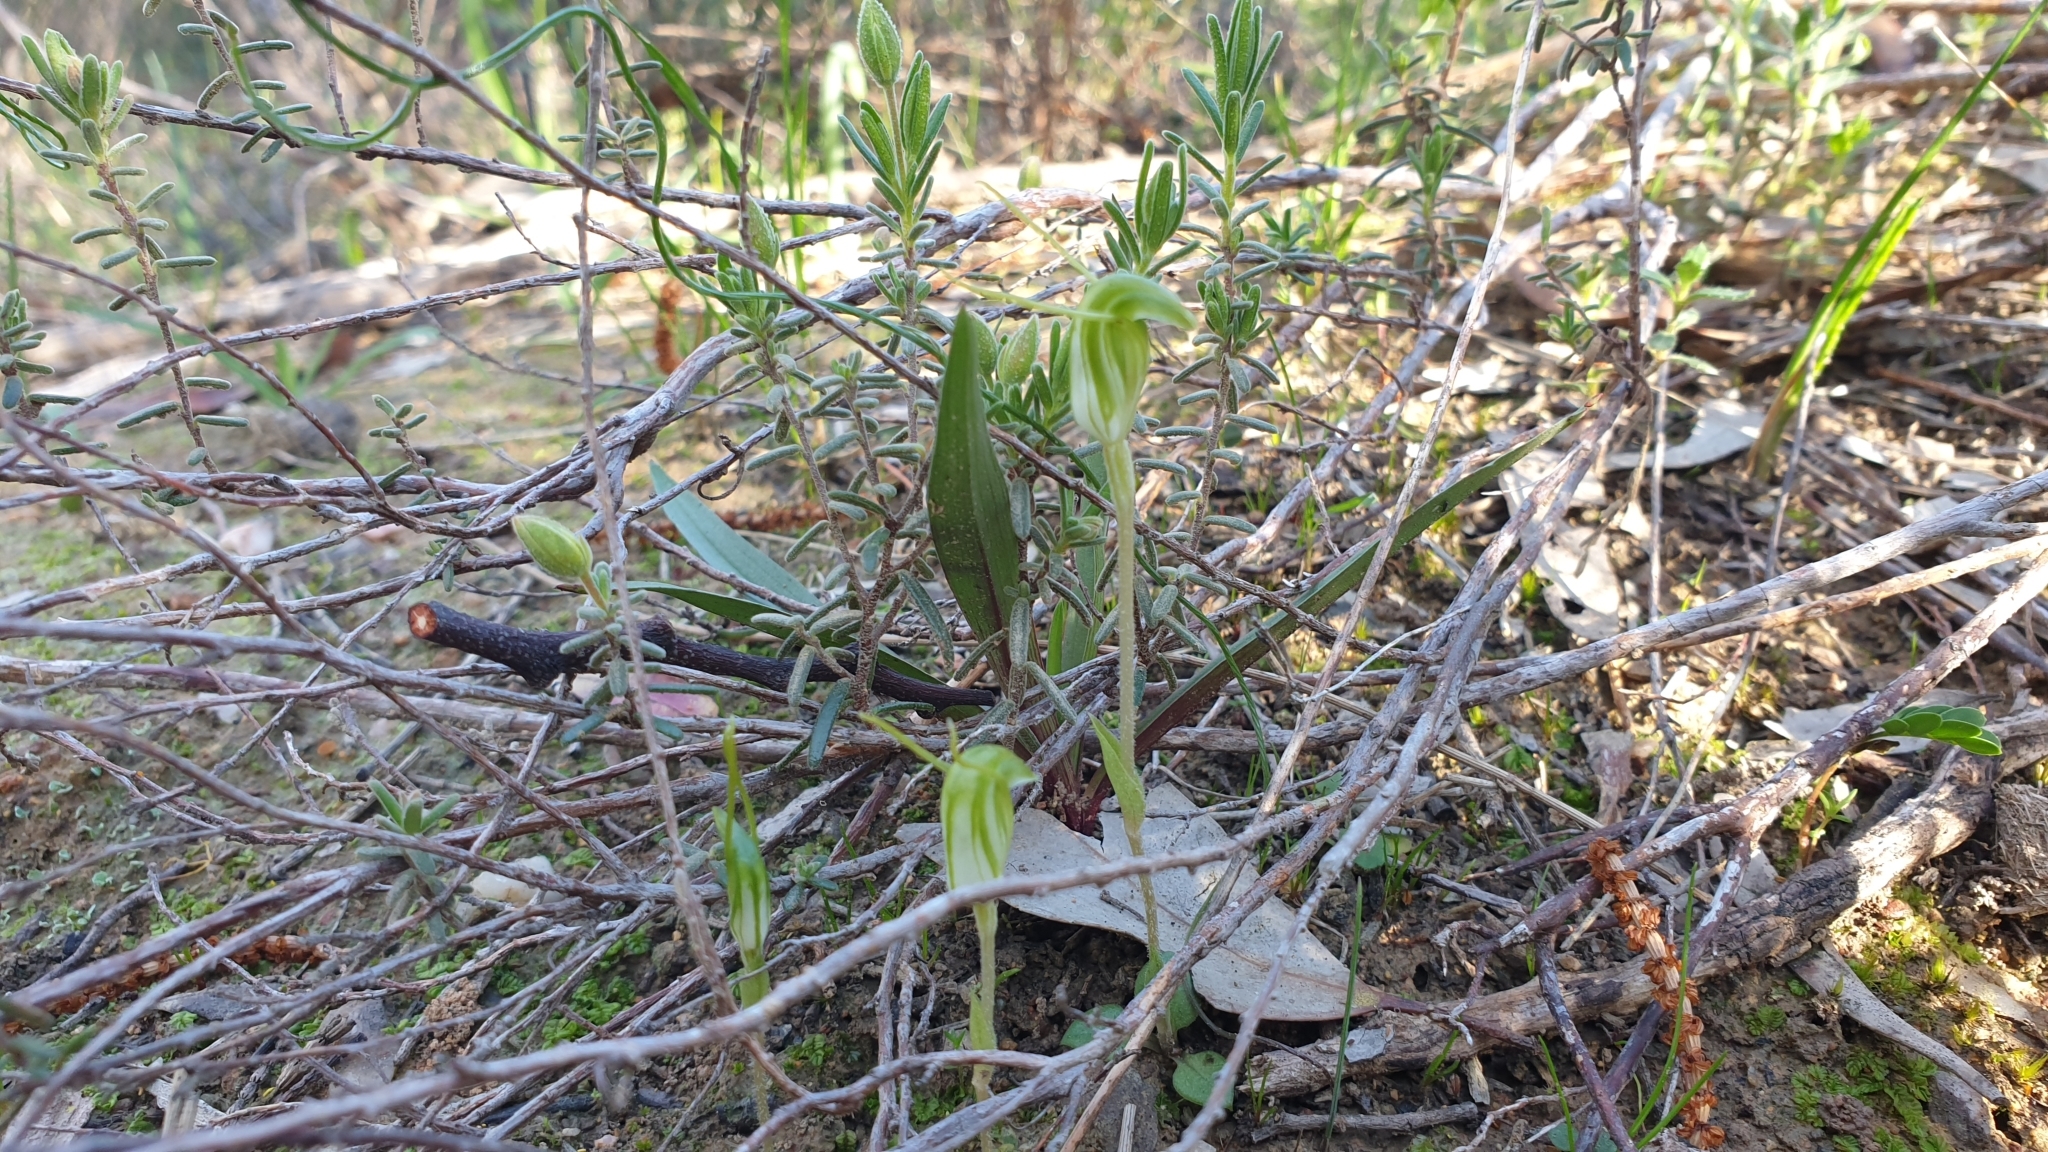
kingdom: Plantae
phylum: Tracheophyta
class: Liliopsida
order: Asparagales
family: Orchidaceae
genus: Pterostylis
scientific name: Pterostylis nana
